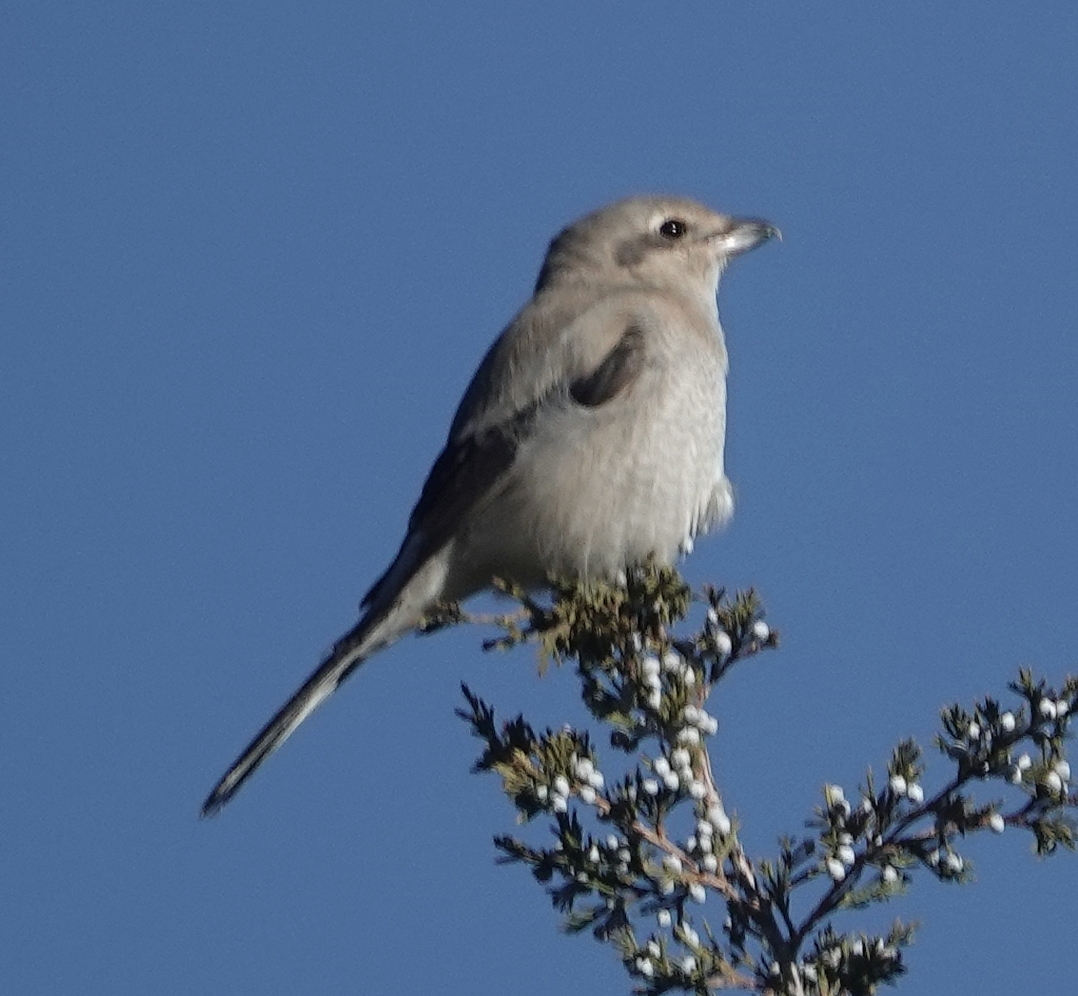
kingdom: Animalia
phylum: Chordata
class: Aves
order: Passeriformes
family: Laniidae
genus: Lanius
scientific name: Lanius borealis
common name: Northern shrike
